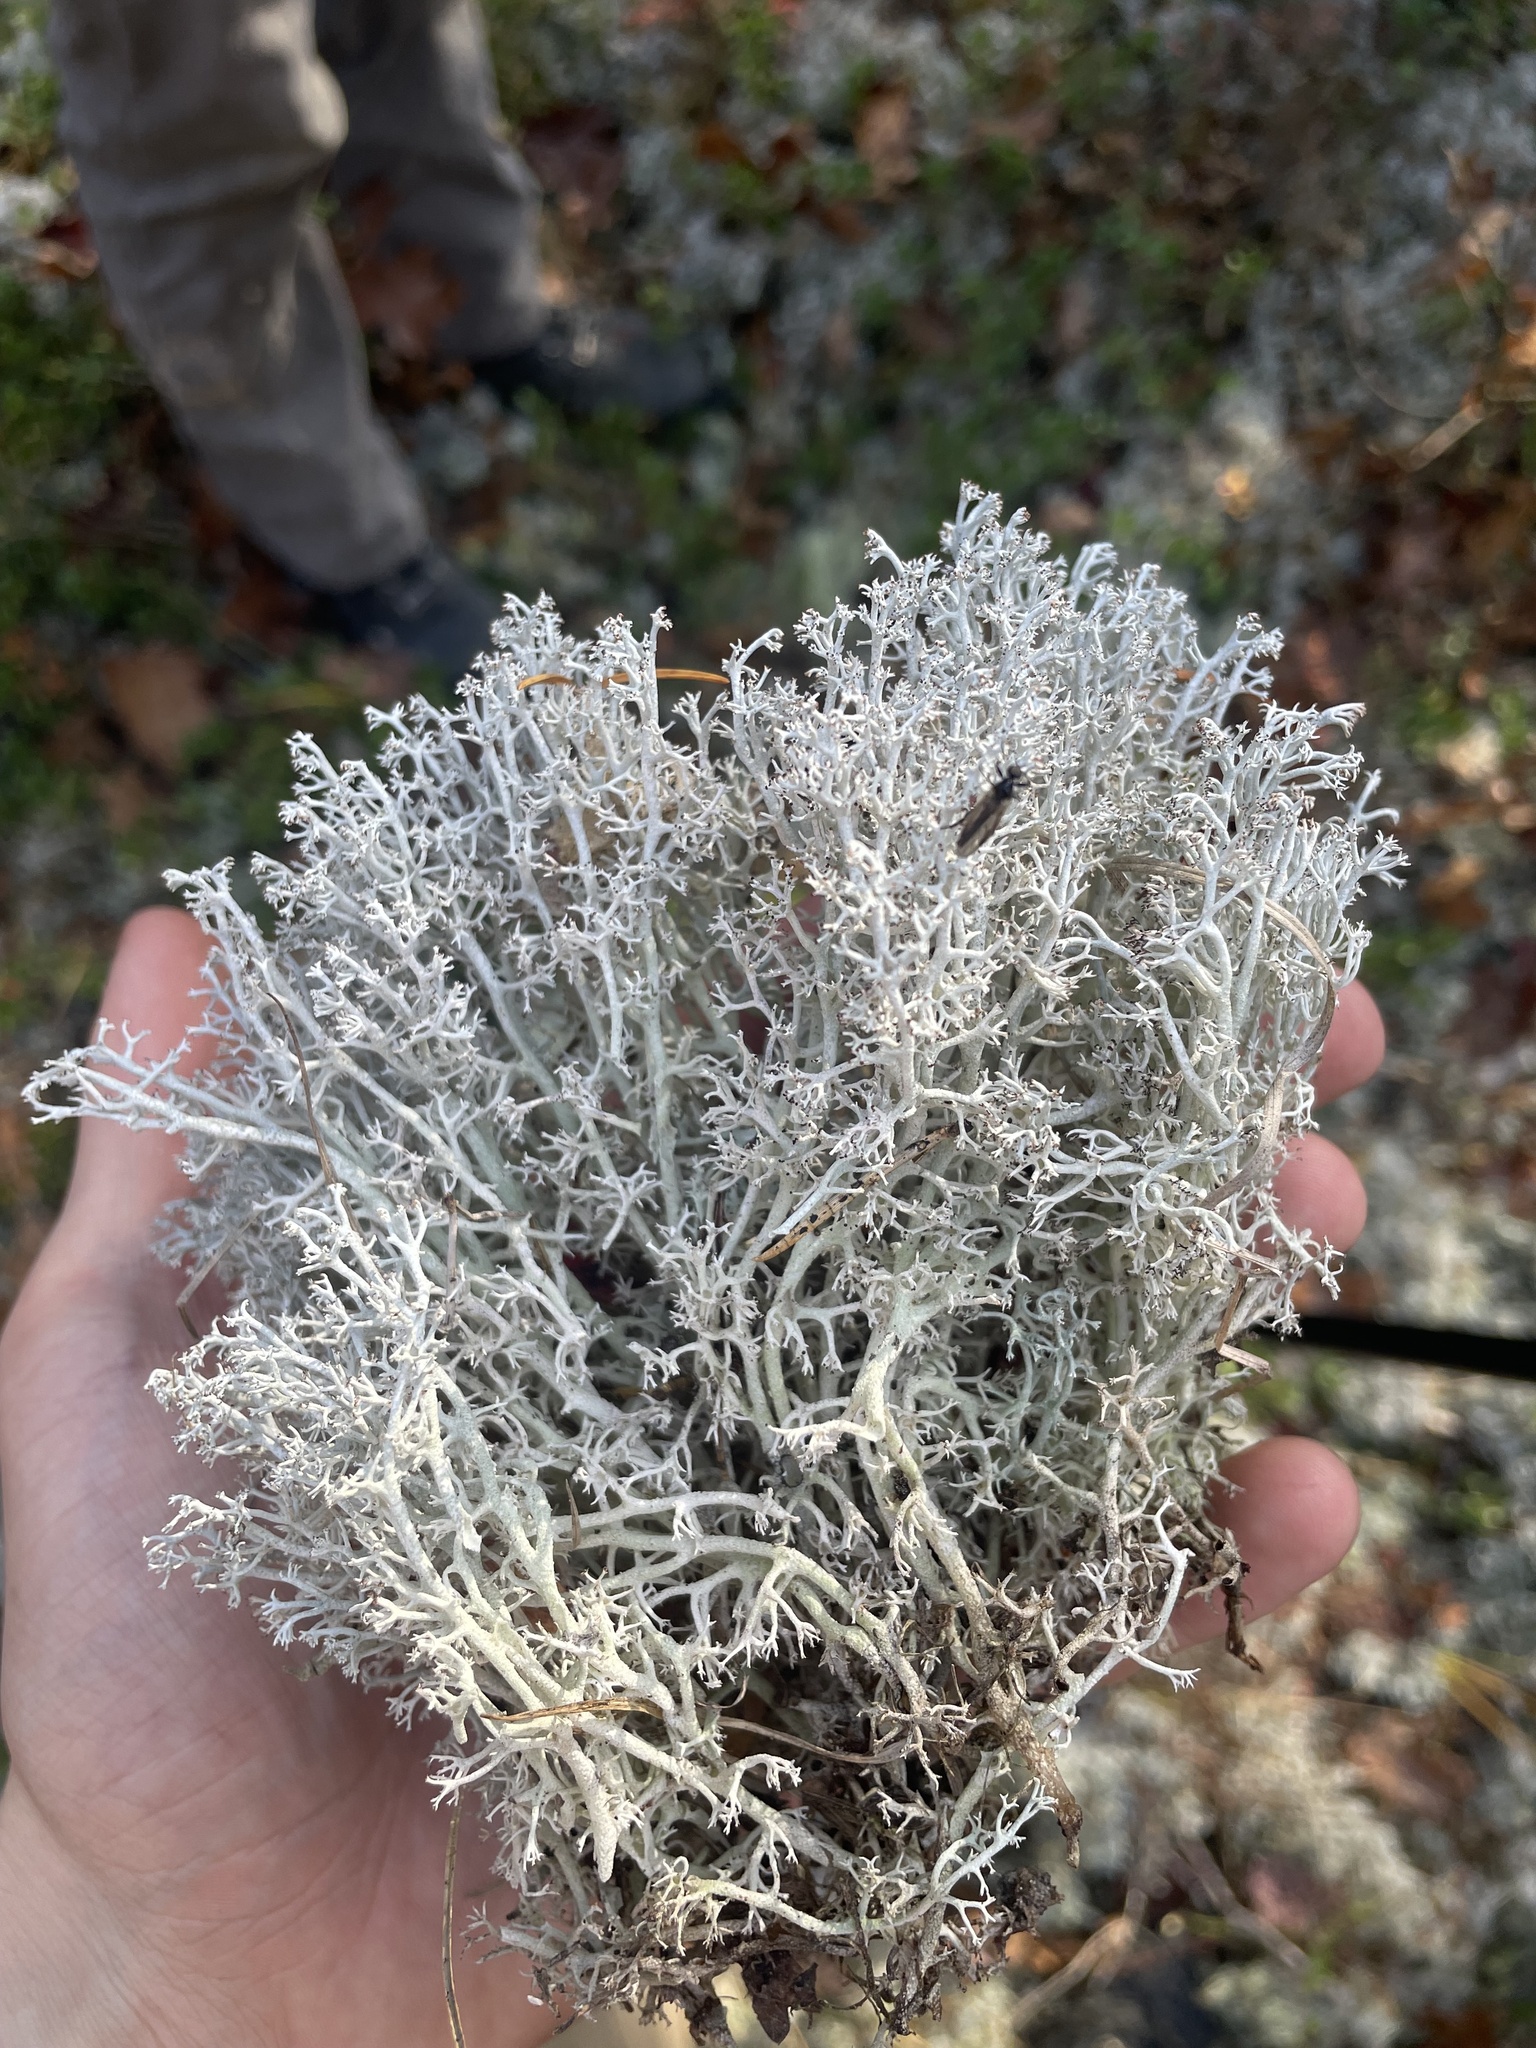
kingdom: Fungi
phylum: Ascomycota
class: Lecanoromycetes
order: Lecanorales
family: Cladoniaceae
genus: Cladonia
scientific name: Cladonia rangiferina
